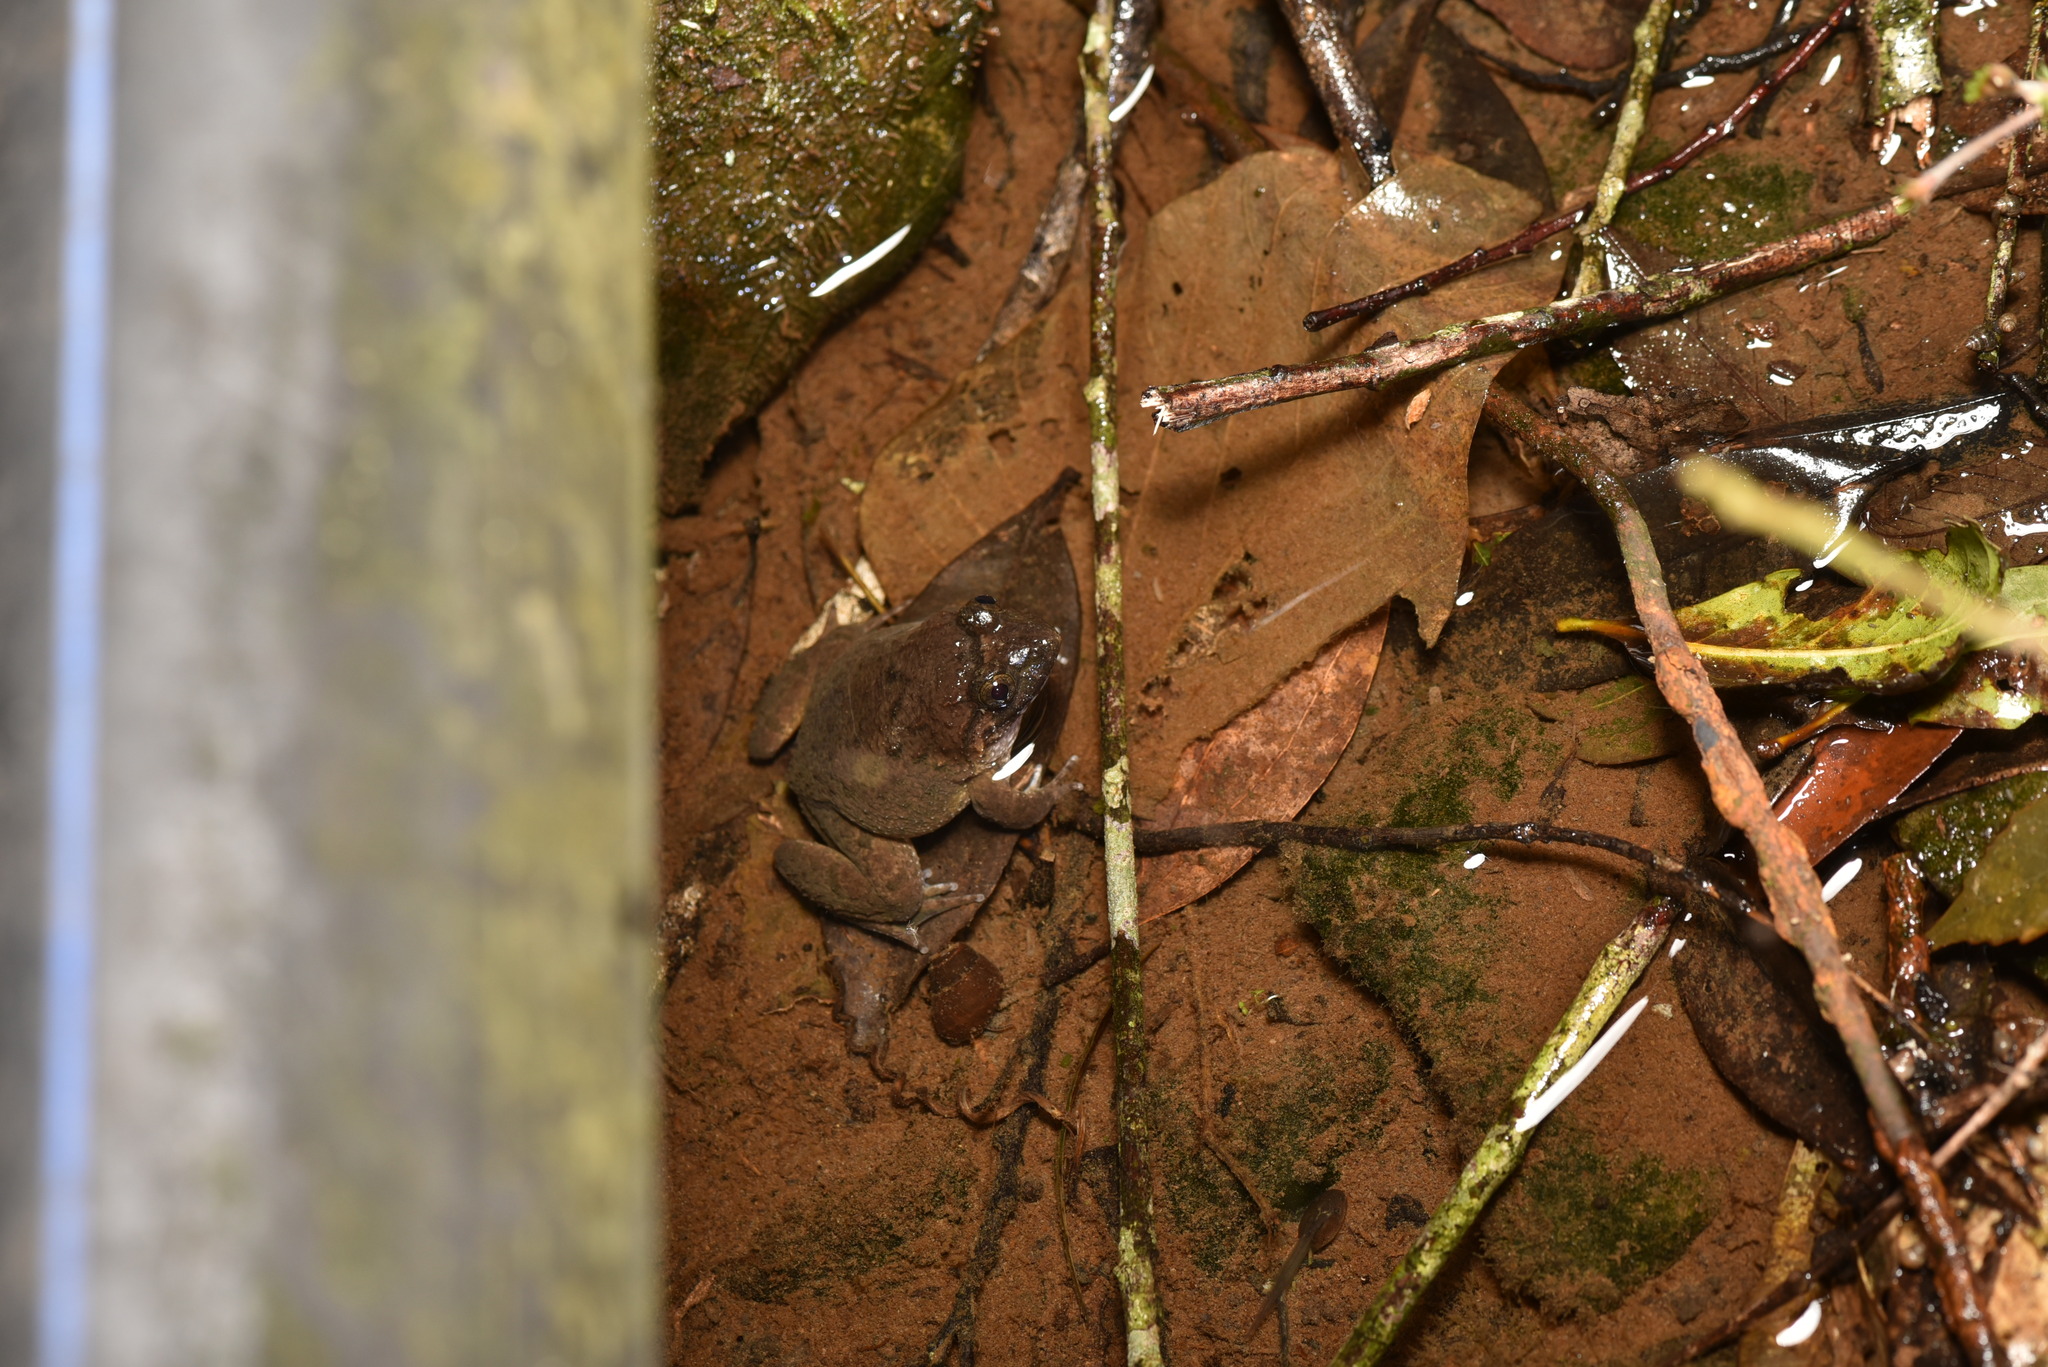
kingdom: Animalia
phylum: Chordata
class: Amphibia
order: Anura
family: Dicroglossidae
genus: Limnonectes
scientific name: Limnonectes fujianensis
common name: Fujian large-headed frog
